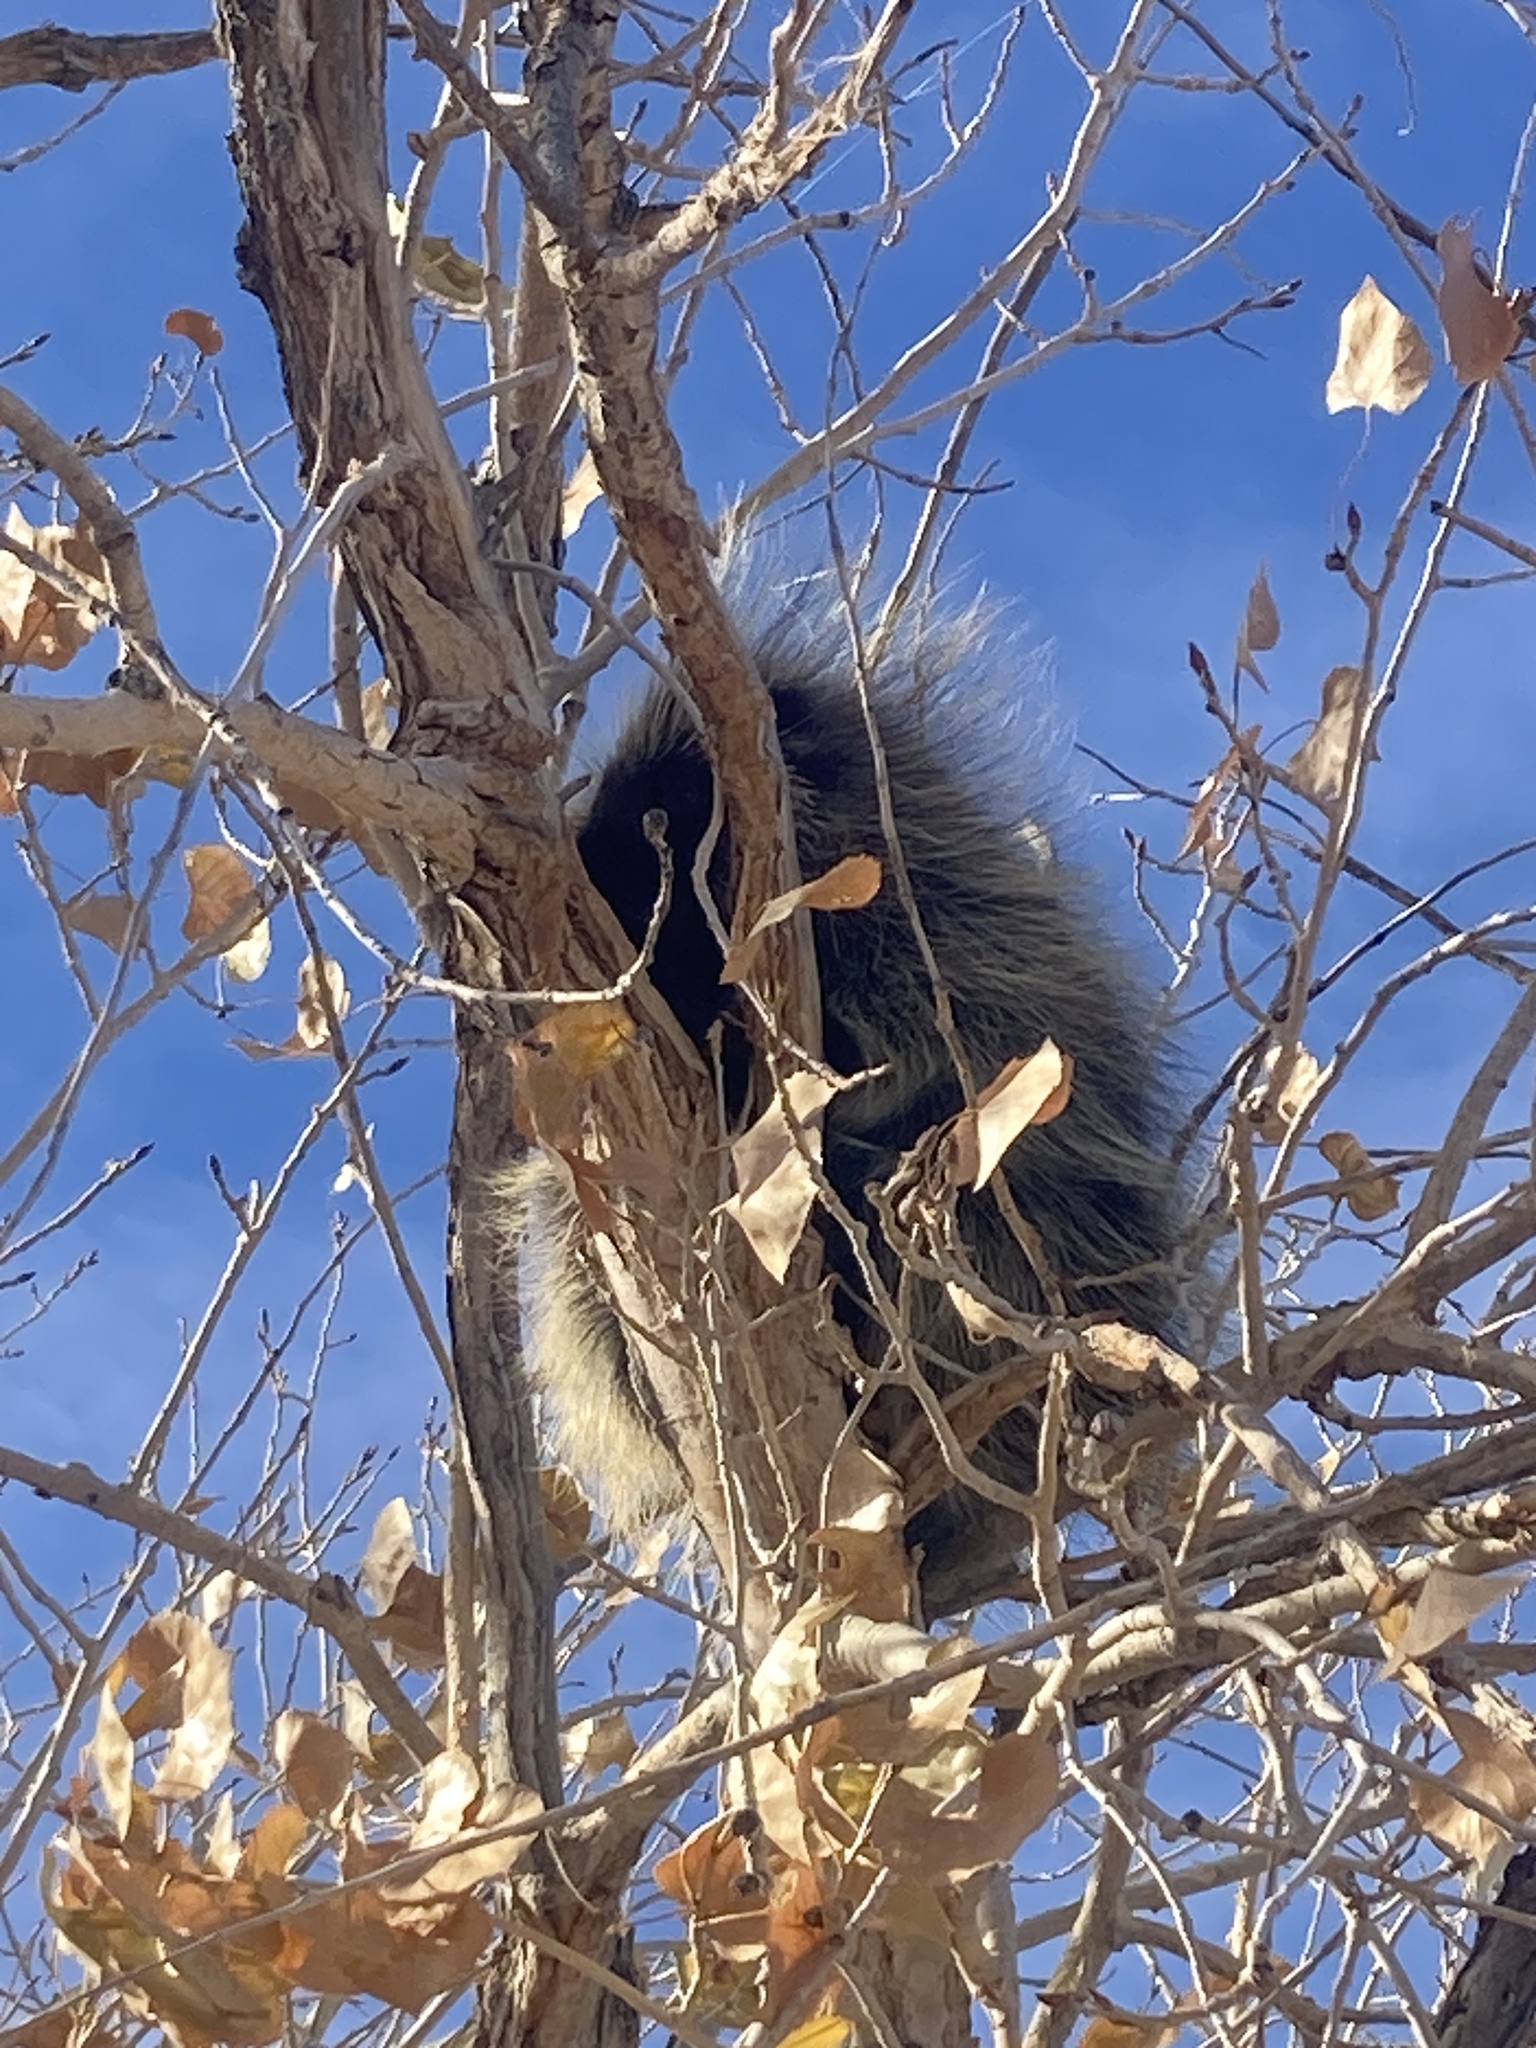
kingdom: Animalia
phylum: Chordata
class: Mammalia
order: Rodentia
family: Erethizontidae
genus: Erethizon
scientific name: Erethizon dorsatus
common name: North american porcupine
